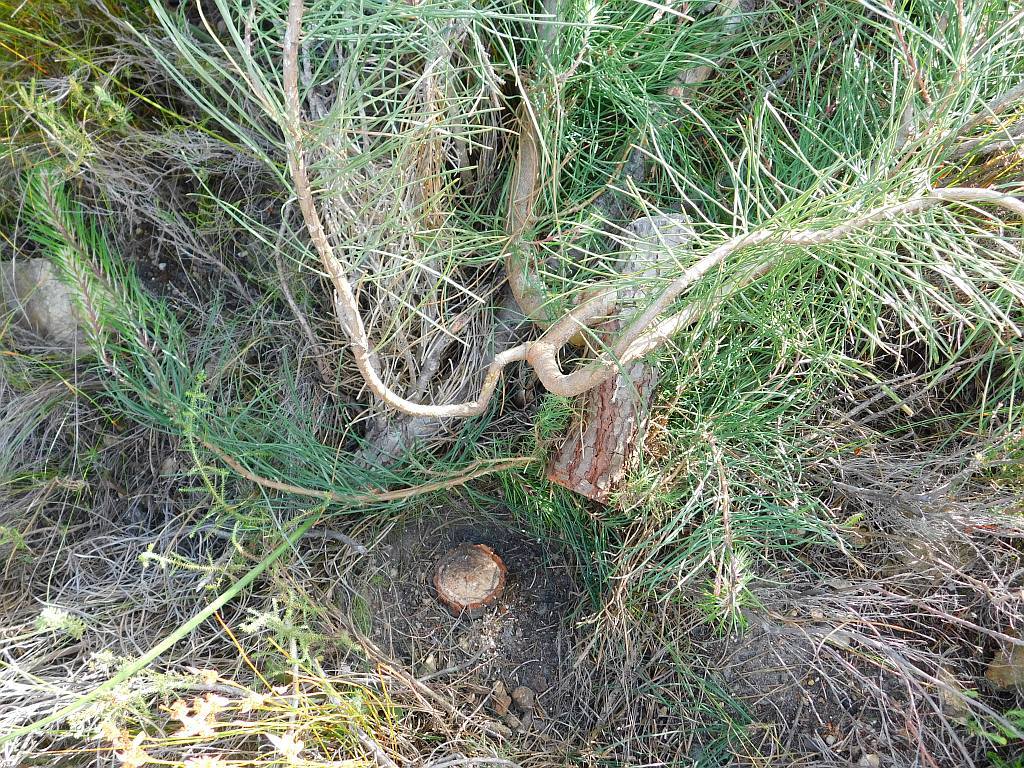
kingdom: Plantae
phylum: Tracheophyta
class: Pinopsida
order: Pinales
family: Pinaceae
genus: Pinus
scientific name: Pinus pinaster
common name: Maritime pine
